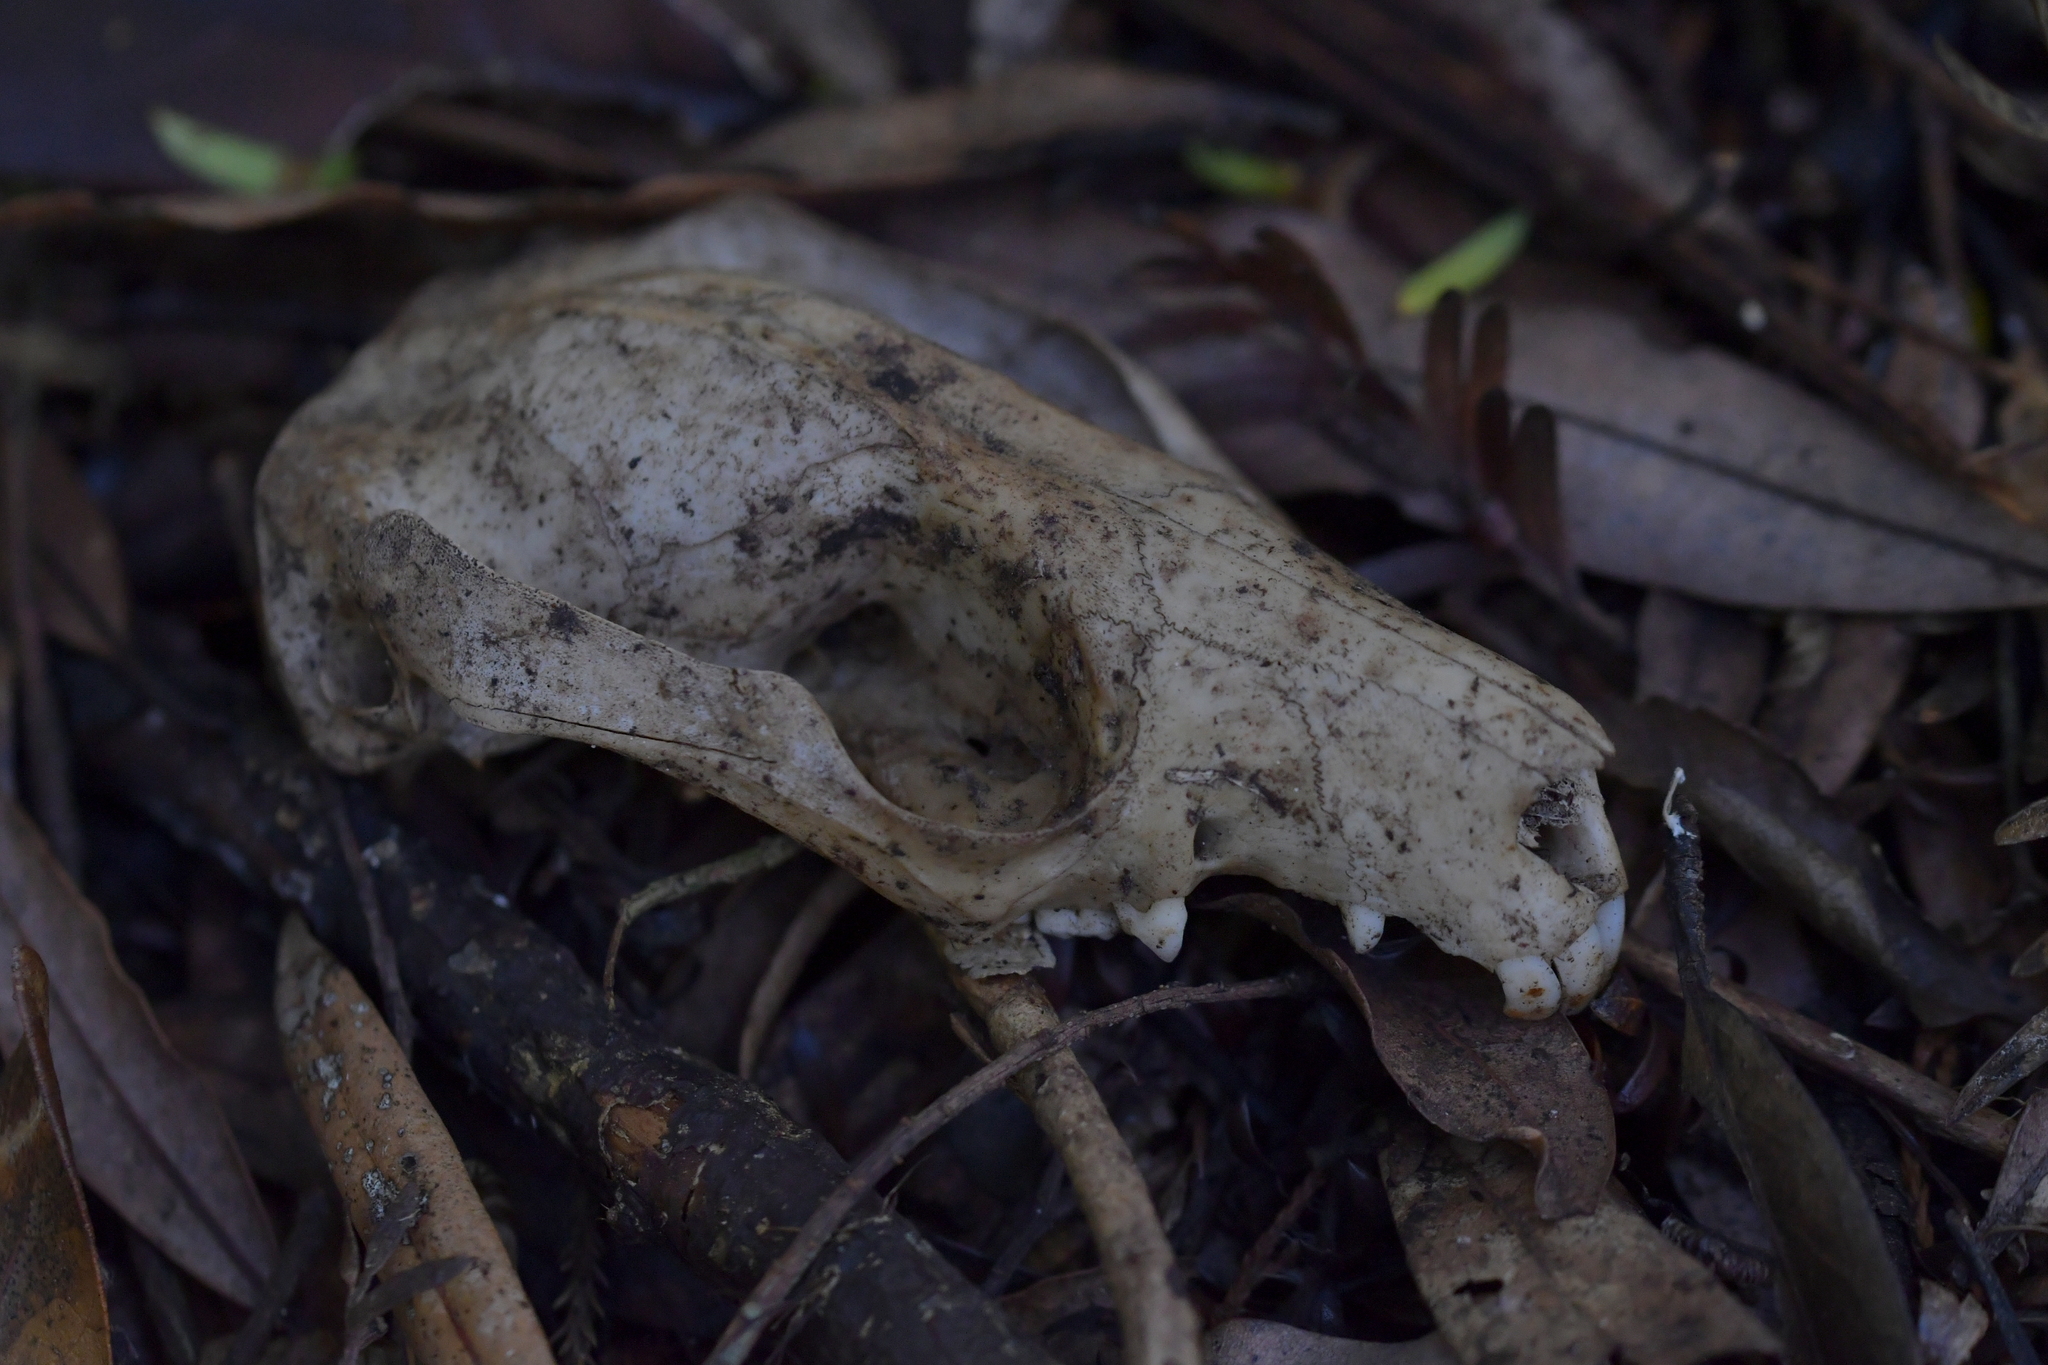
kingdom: Animalia
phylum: Chordata
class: Mammalia
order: Diprotodontia
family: Phalangeridae
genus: Trichosurus
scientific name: Trichosurus vulpecula
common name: Common brushtail
